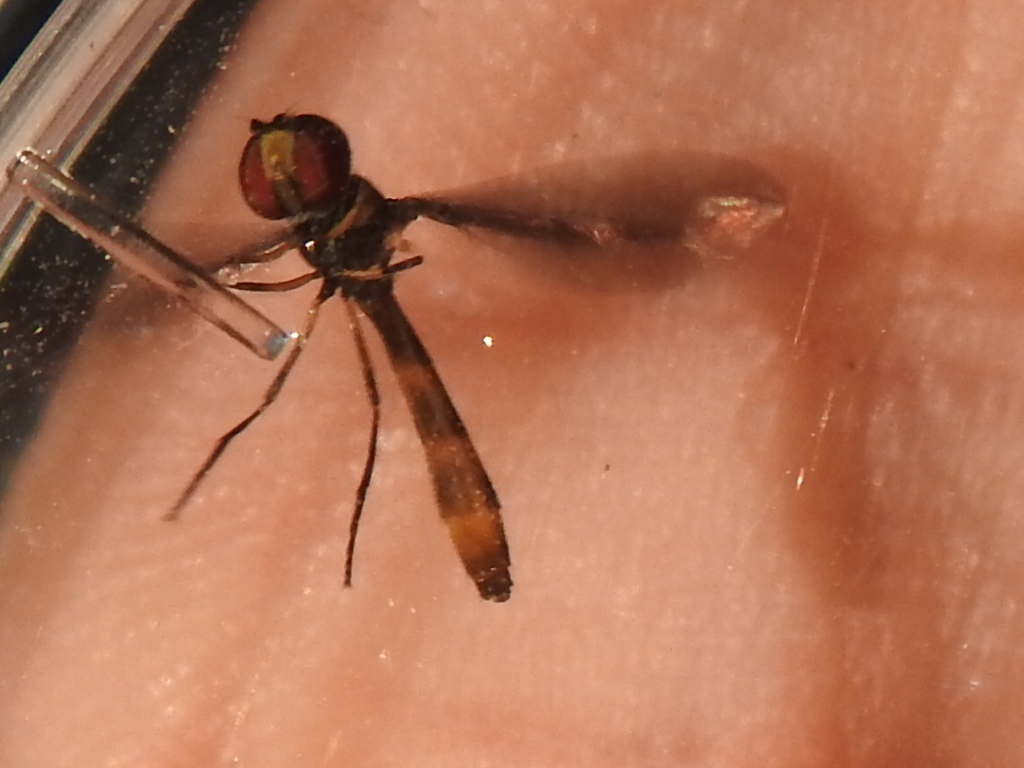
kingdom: Animalia
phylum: Arthropoda
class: Insecta
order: Diptera
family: Syrphidae
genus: Ocyptamus
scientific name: Ocyptamus fuscipennis
